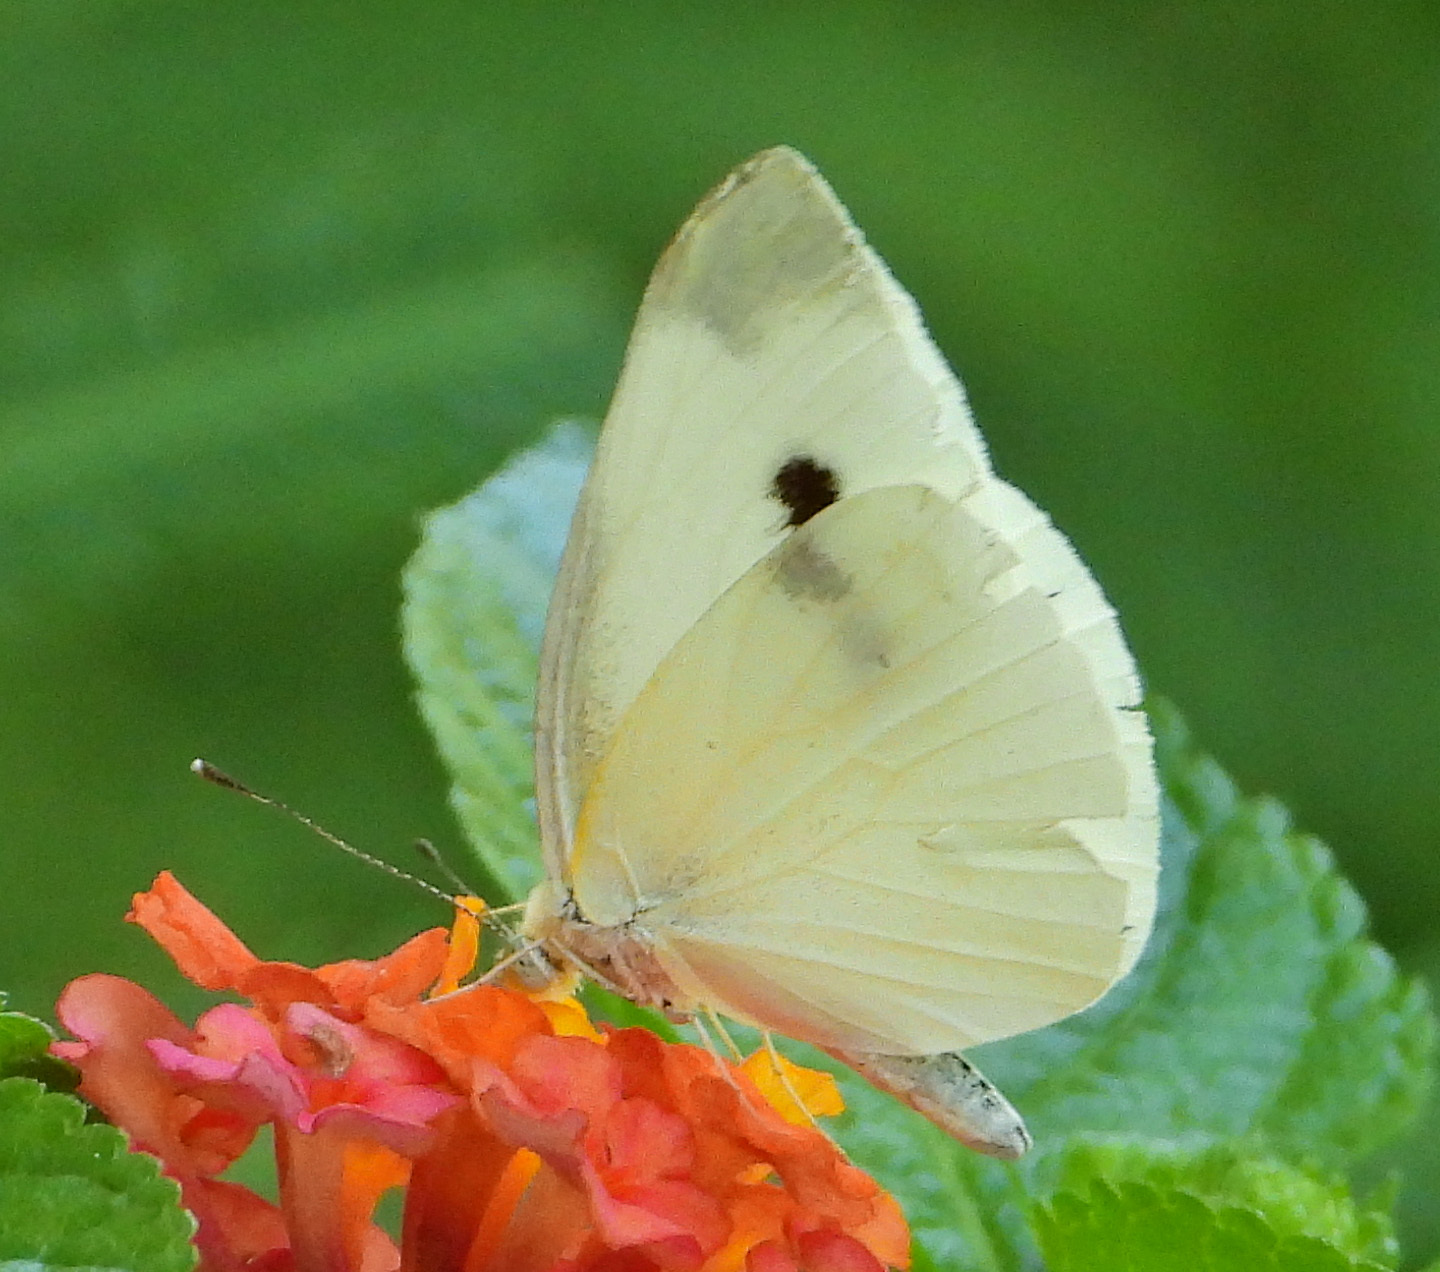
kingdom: Animalia
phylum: Arthropoda
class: Insecta
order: Lepidoptera
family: Pieridae
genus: Pieris
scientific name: Pieris rapae
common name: Small white
